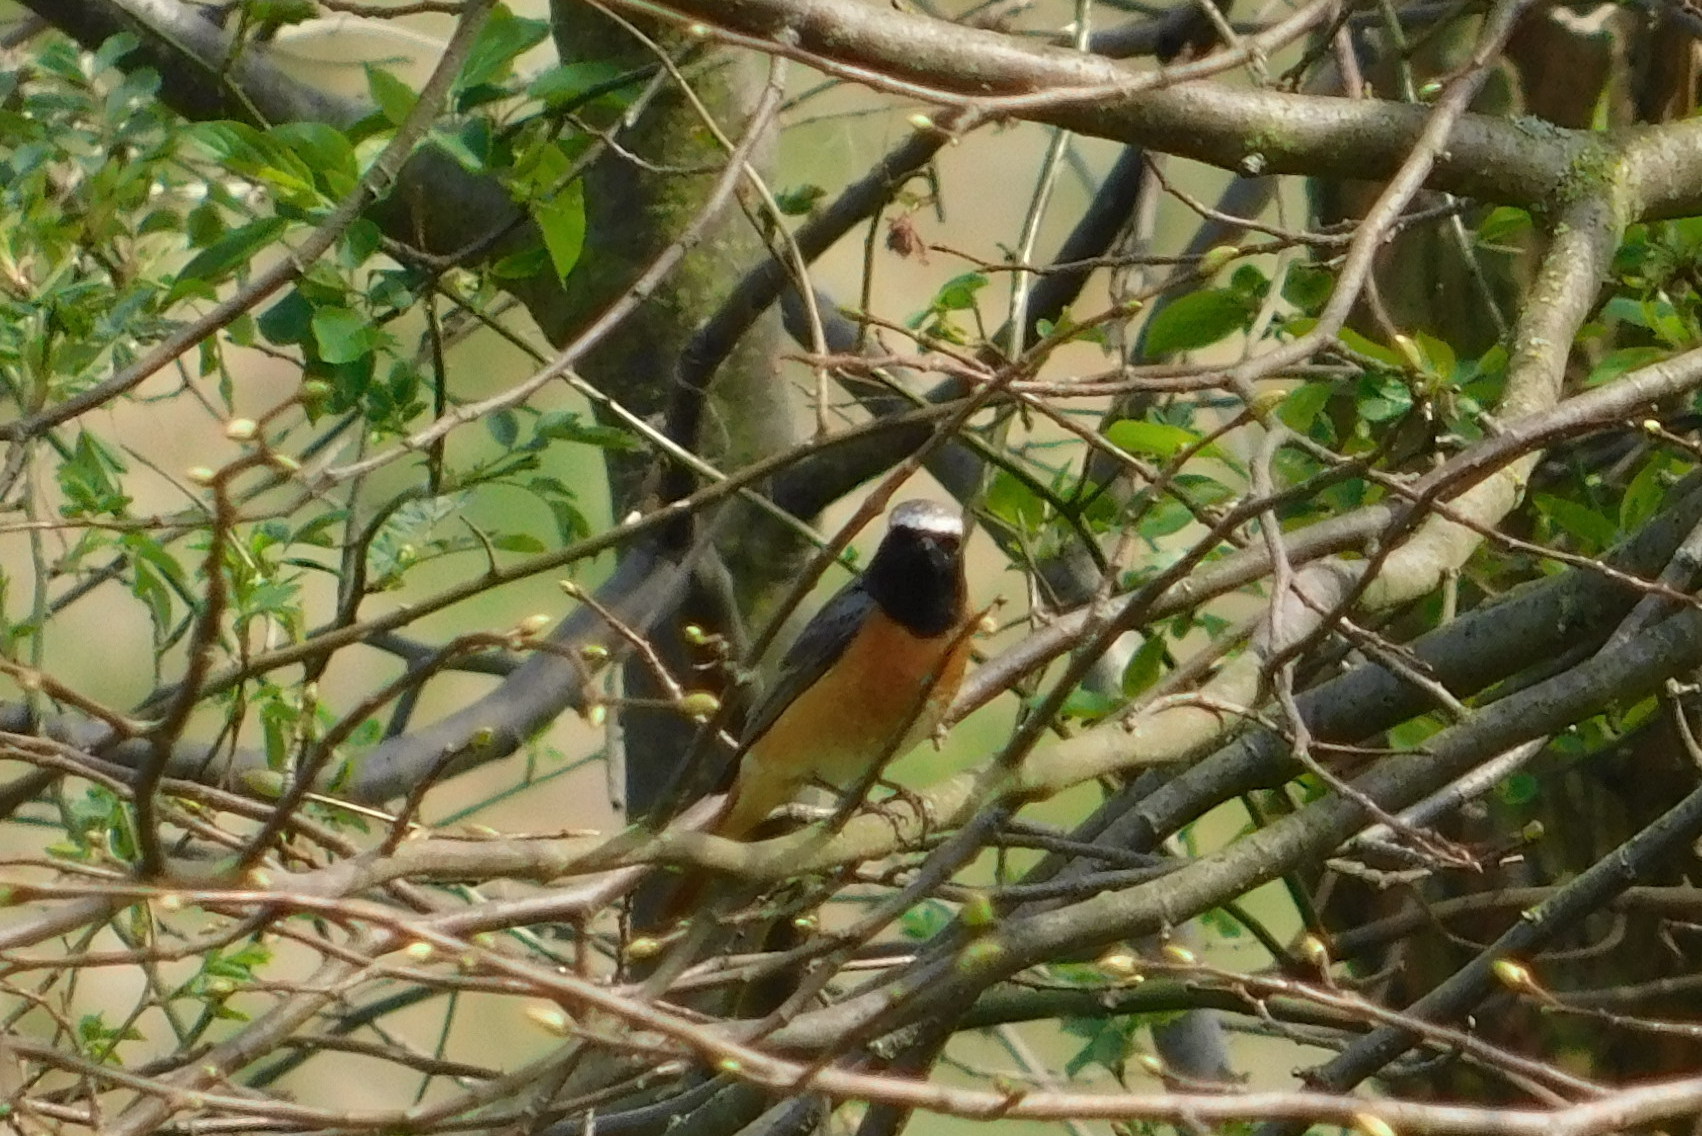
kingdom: Animalia
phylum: Chordata
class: Aves
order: Passeriformes
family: Muscicapidae
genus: Phoenicurus
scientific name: Phoenicurus phoenicurus
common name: Common redstart
